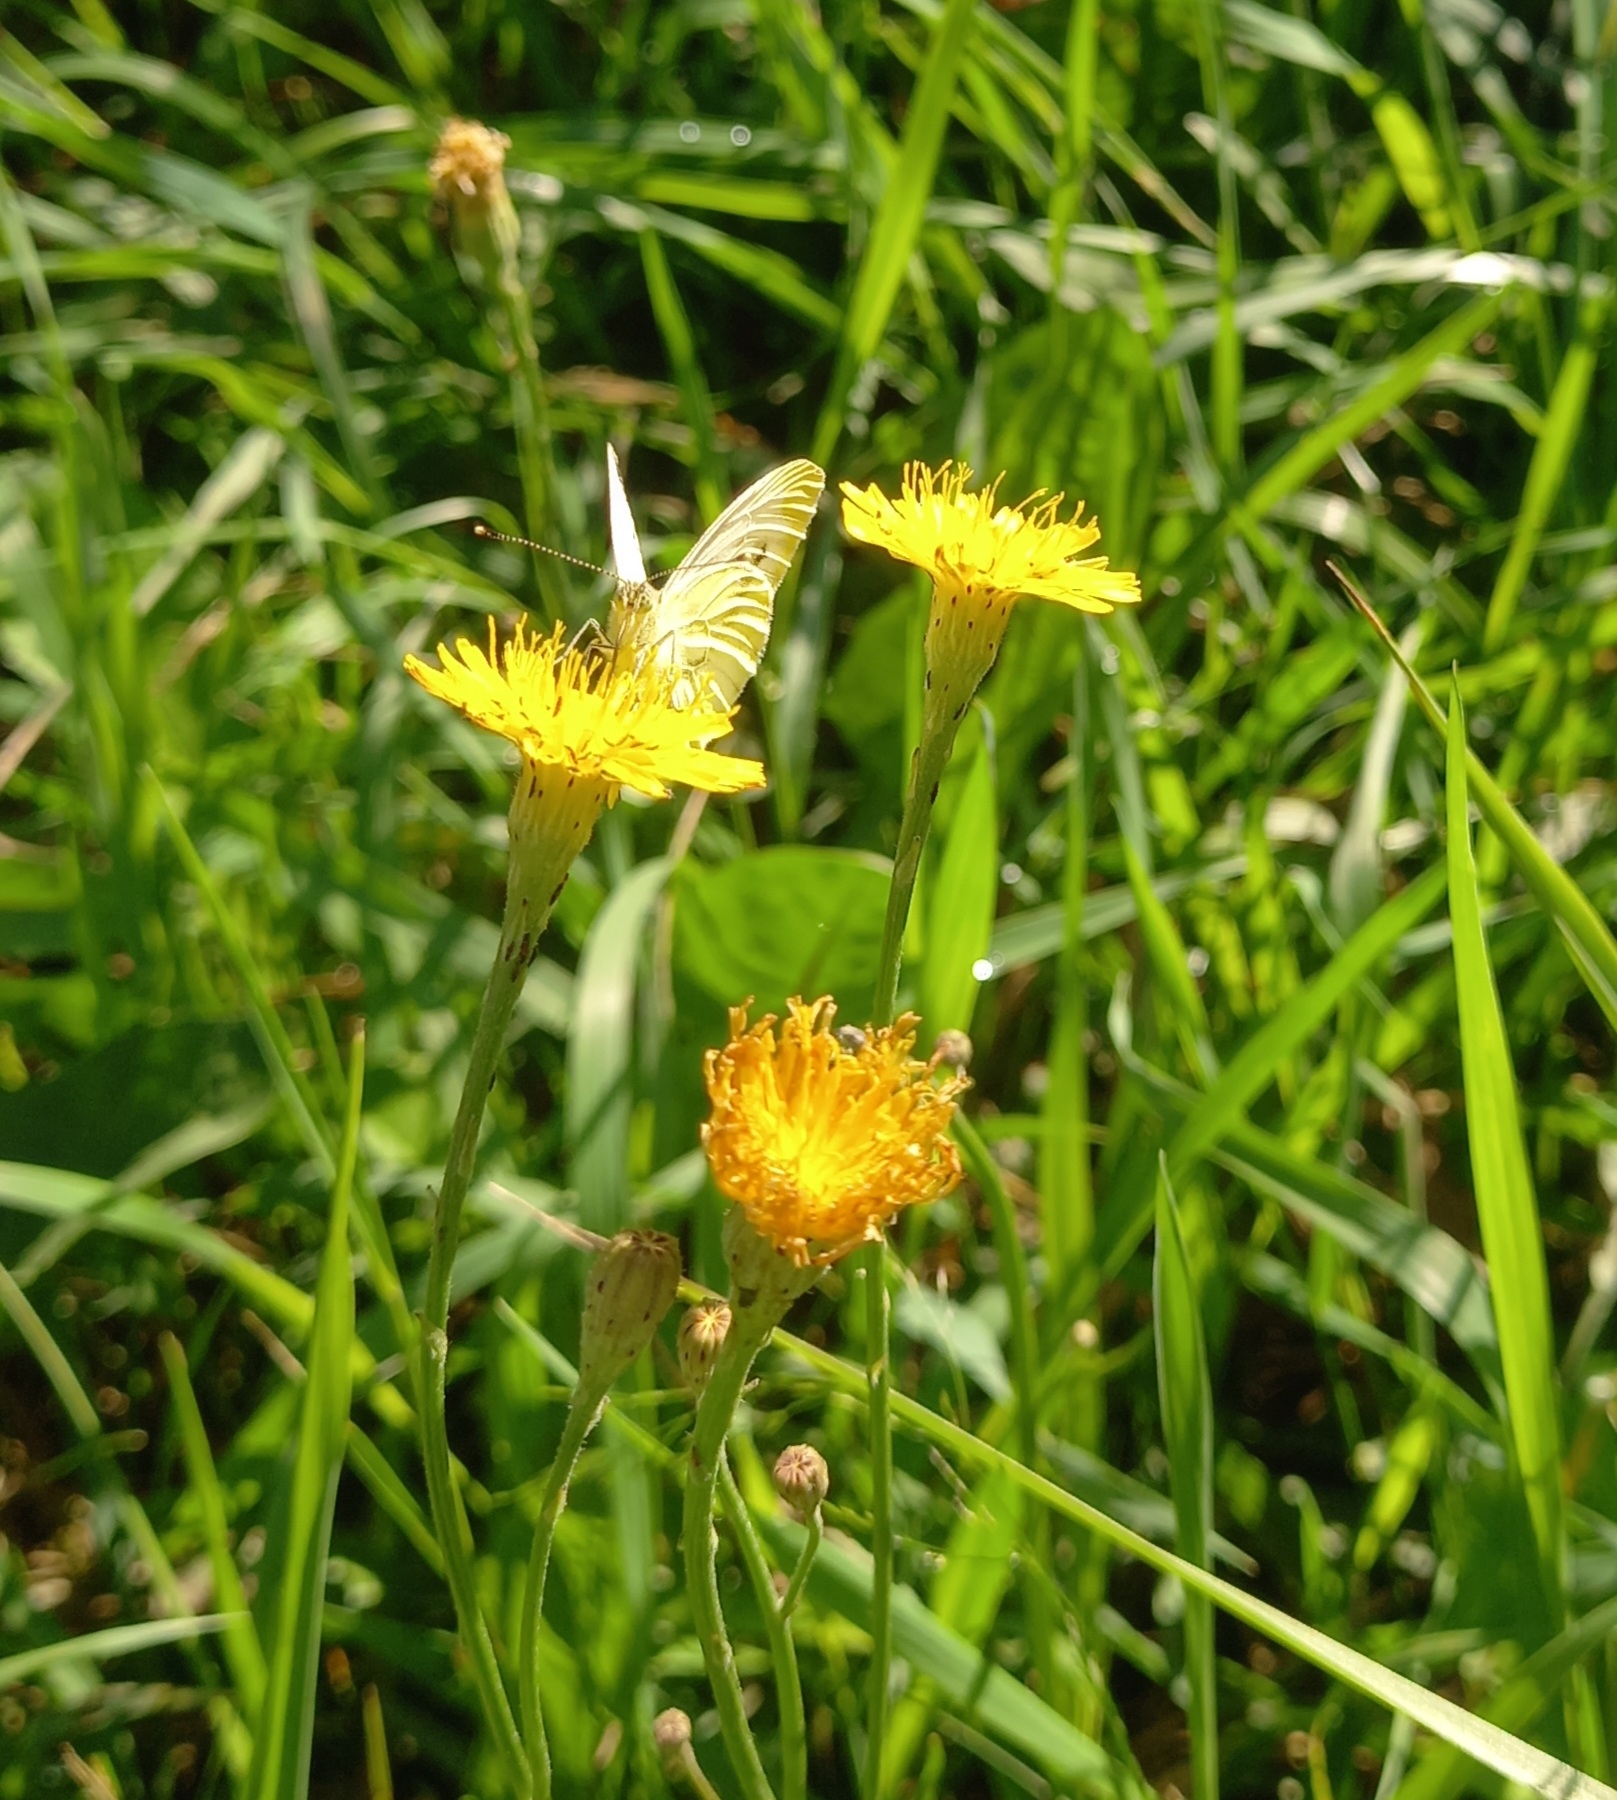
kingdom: Animalia
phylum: Arthropoda
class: Insecta
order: Lepidoptera
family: Pieridae
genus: Pieris
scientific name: Pieris napi
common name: Green-veined white
